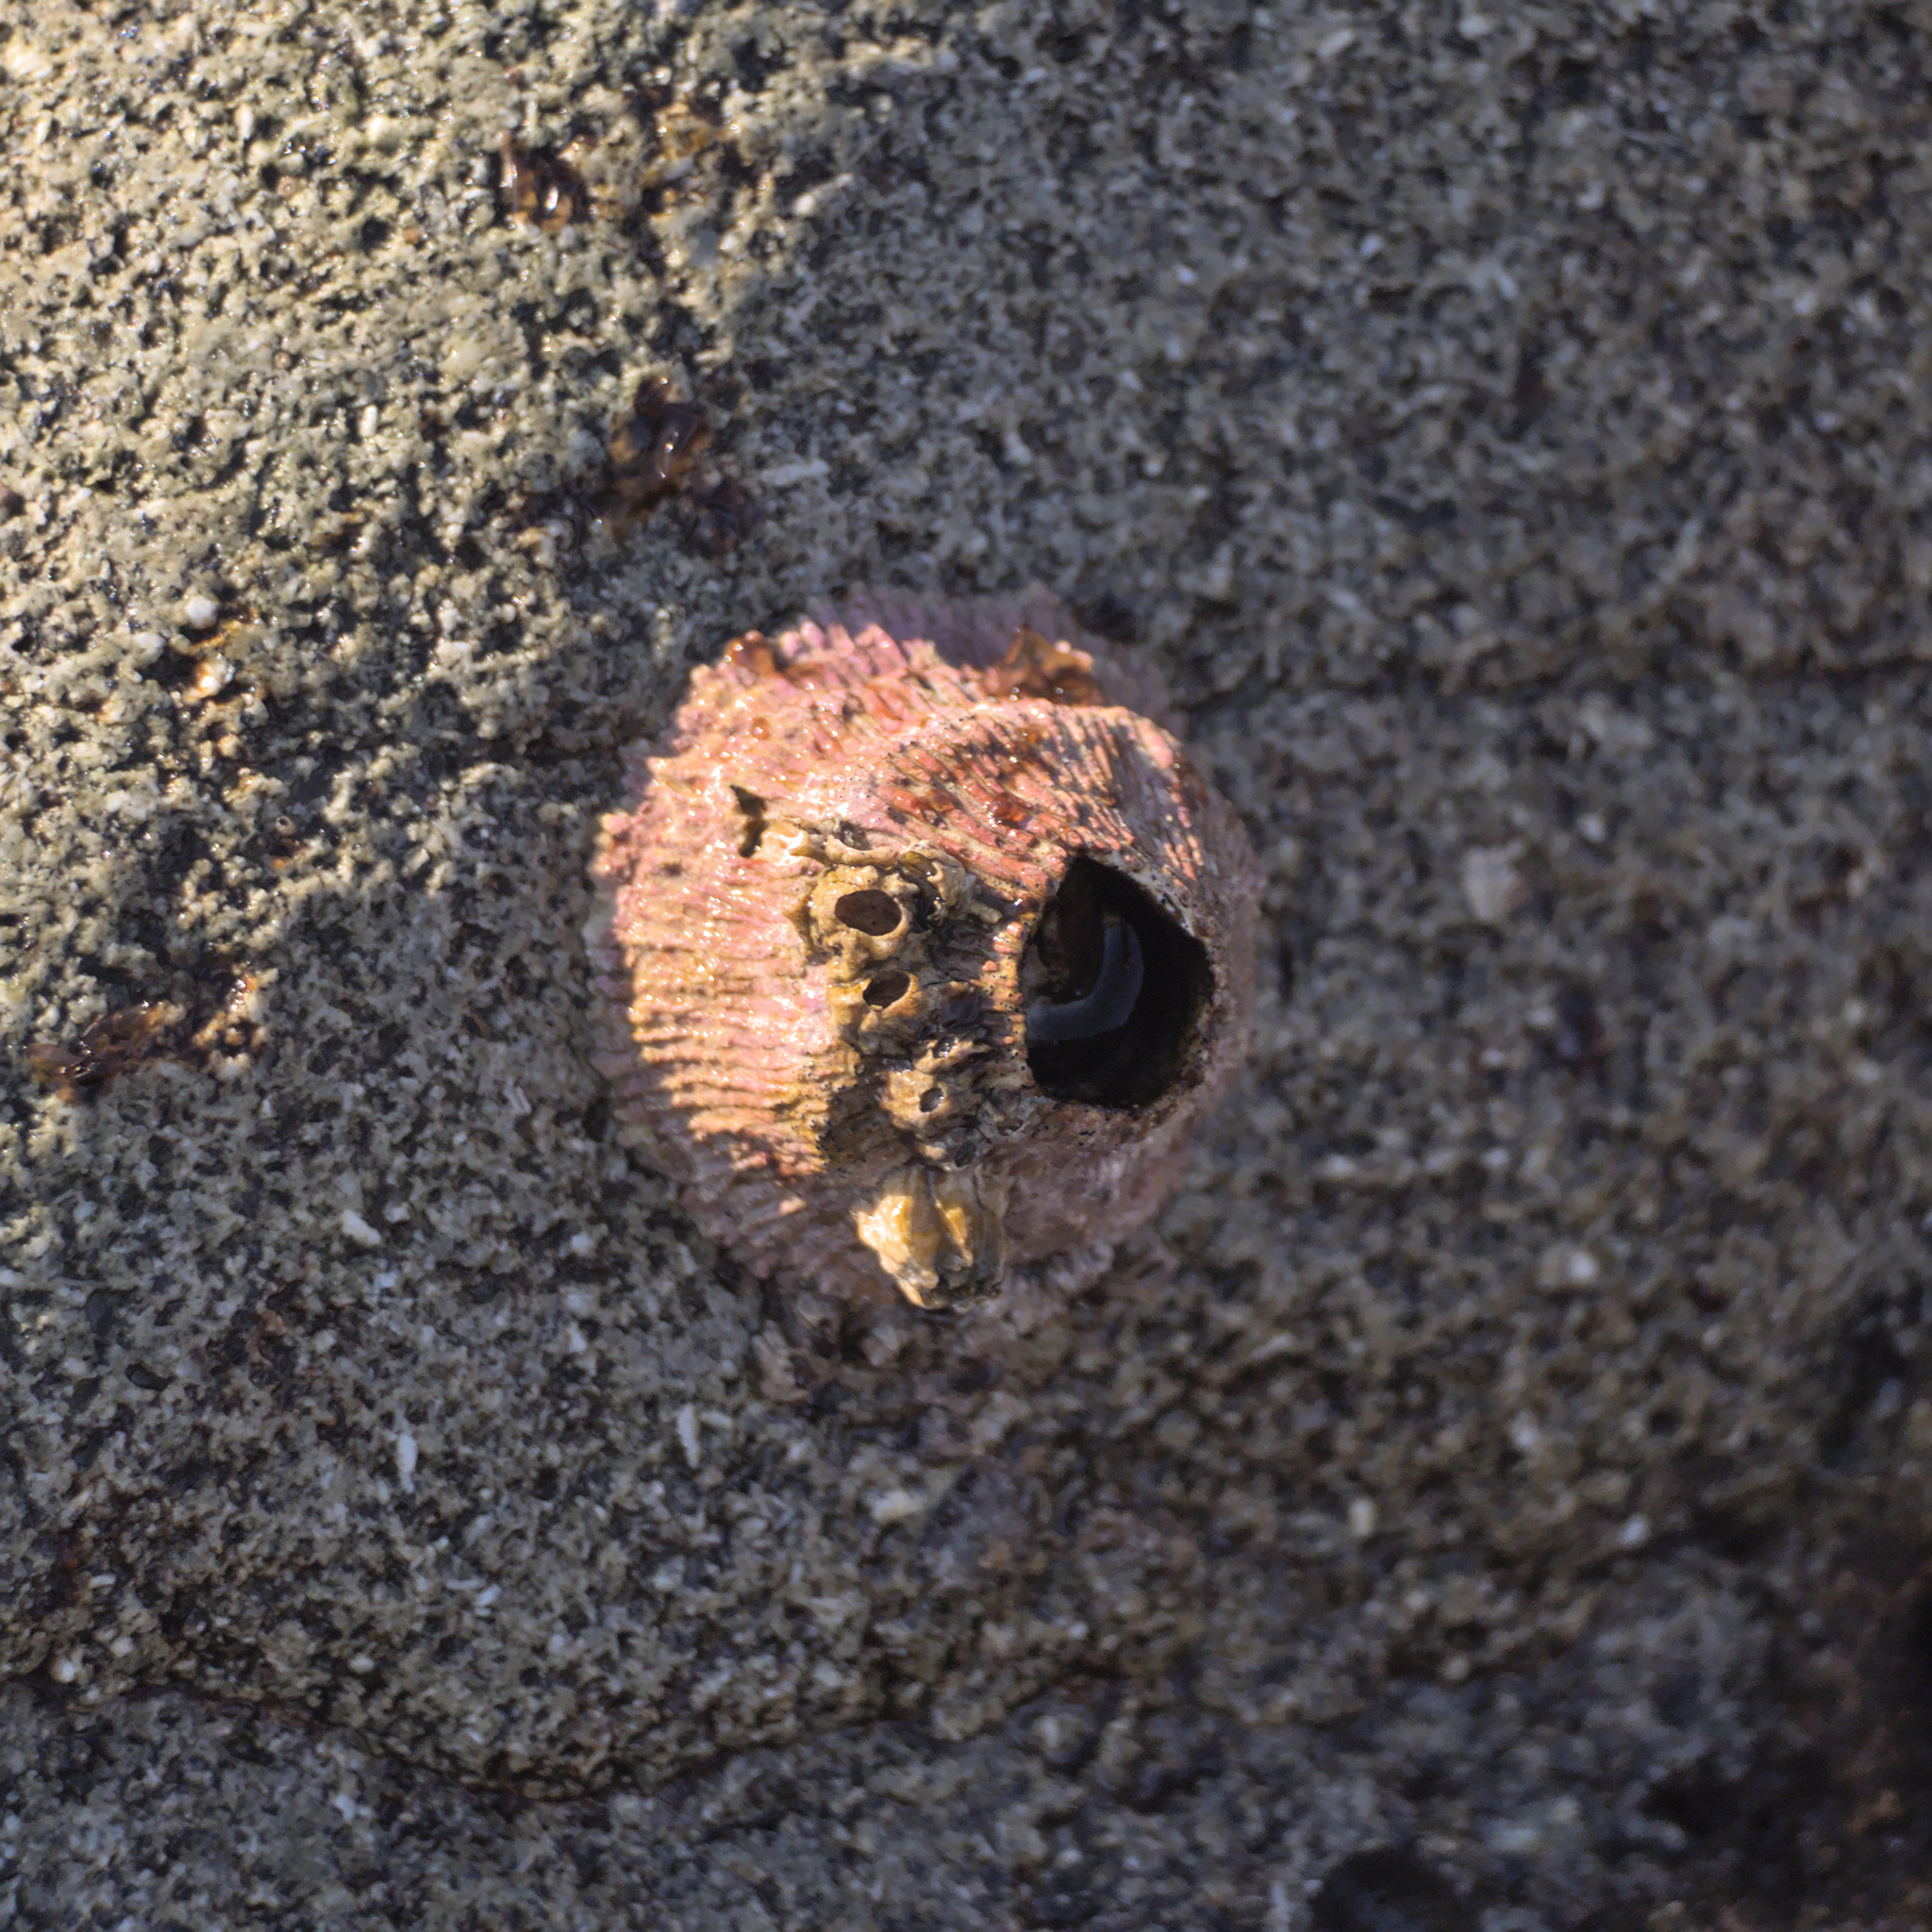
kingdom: Animalia
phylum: Arthropoda
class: Maxillopoda
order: Sessilia
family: Tetraclitidae
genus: Tetraclita
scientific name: Tetraclita rubescens
